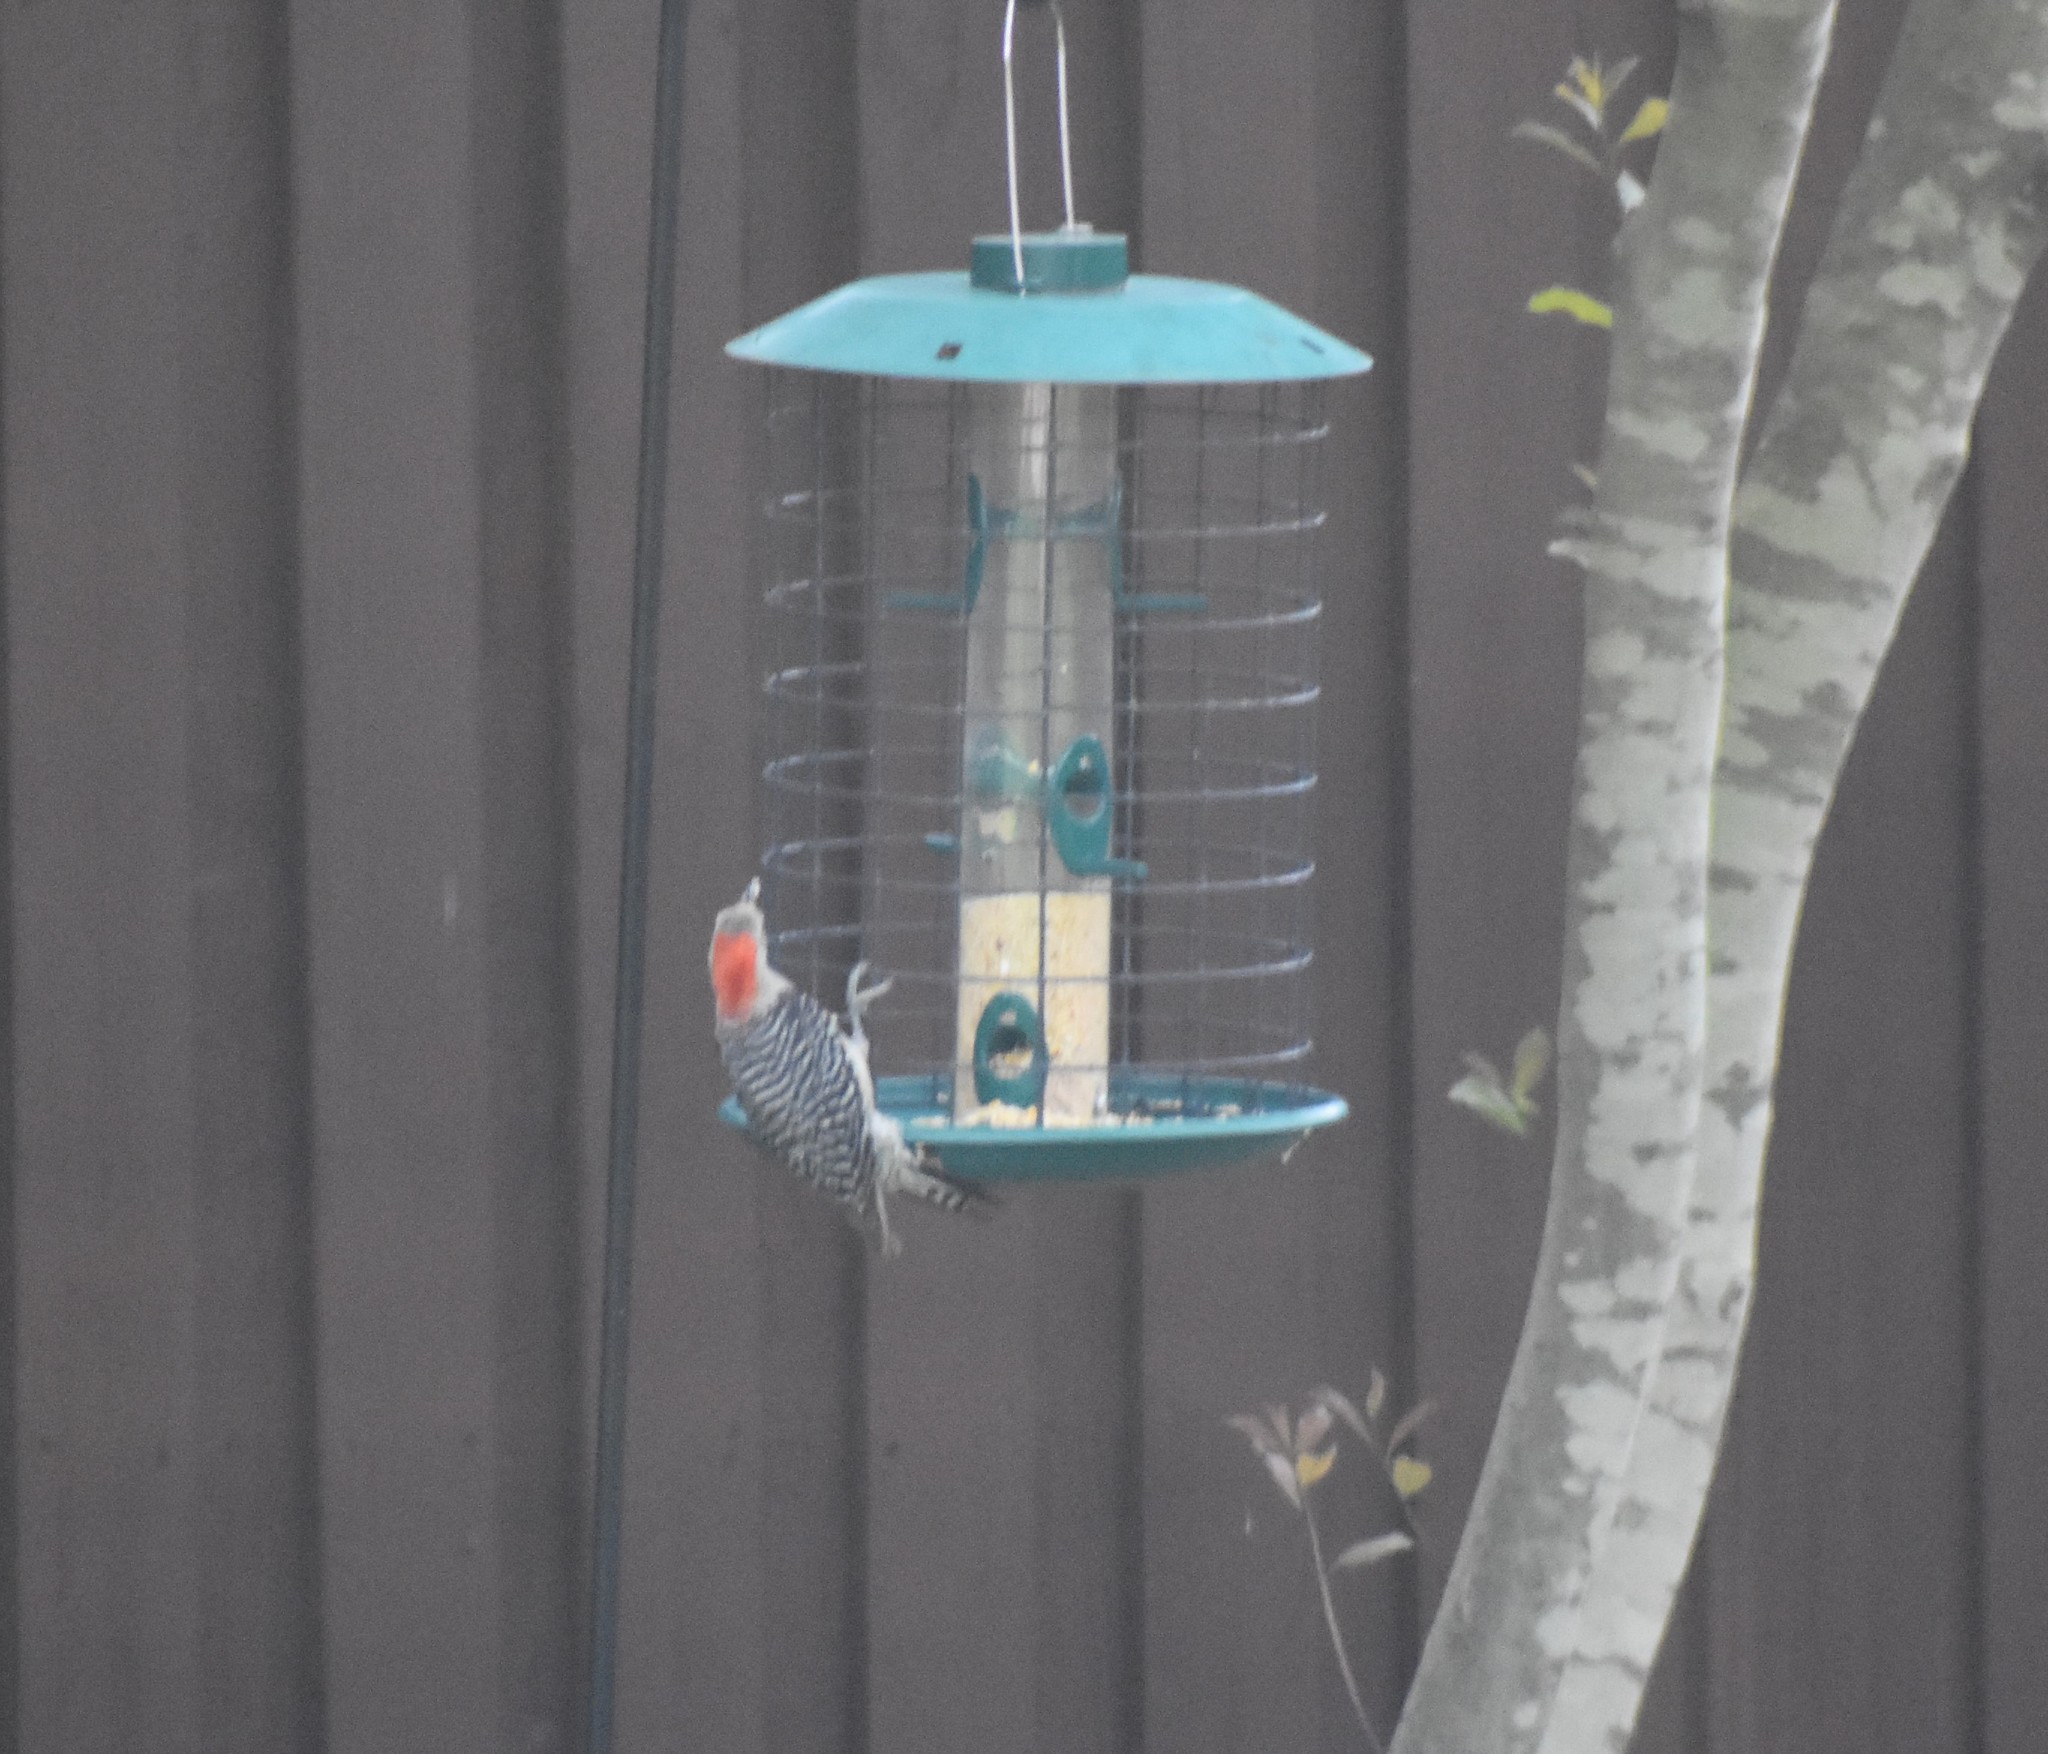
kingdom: Animalia
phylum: Chordata
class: Aves
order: Piciformes
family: Picidae
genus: Melanerpes
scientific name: Melanerpes carolinus
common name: Red-bellied woodpecker
